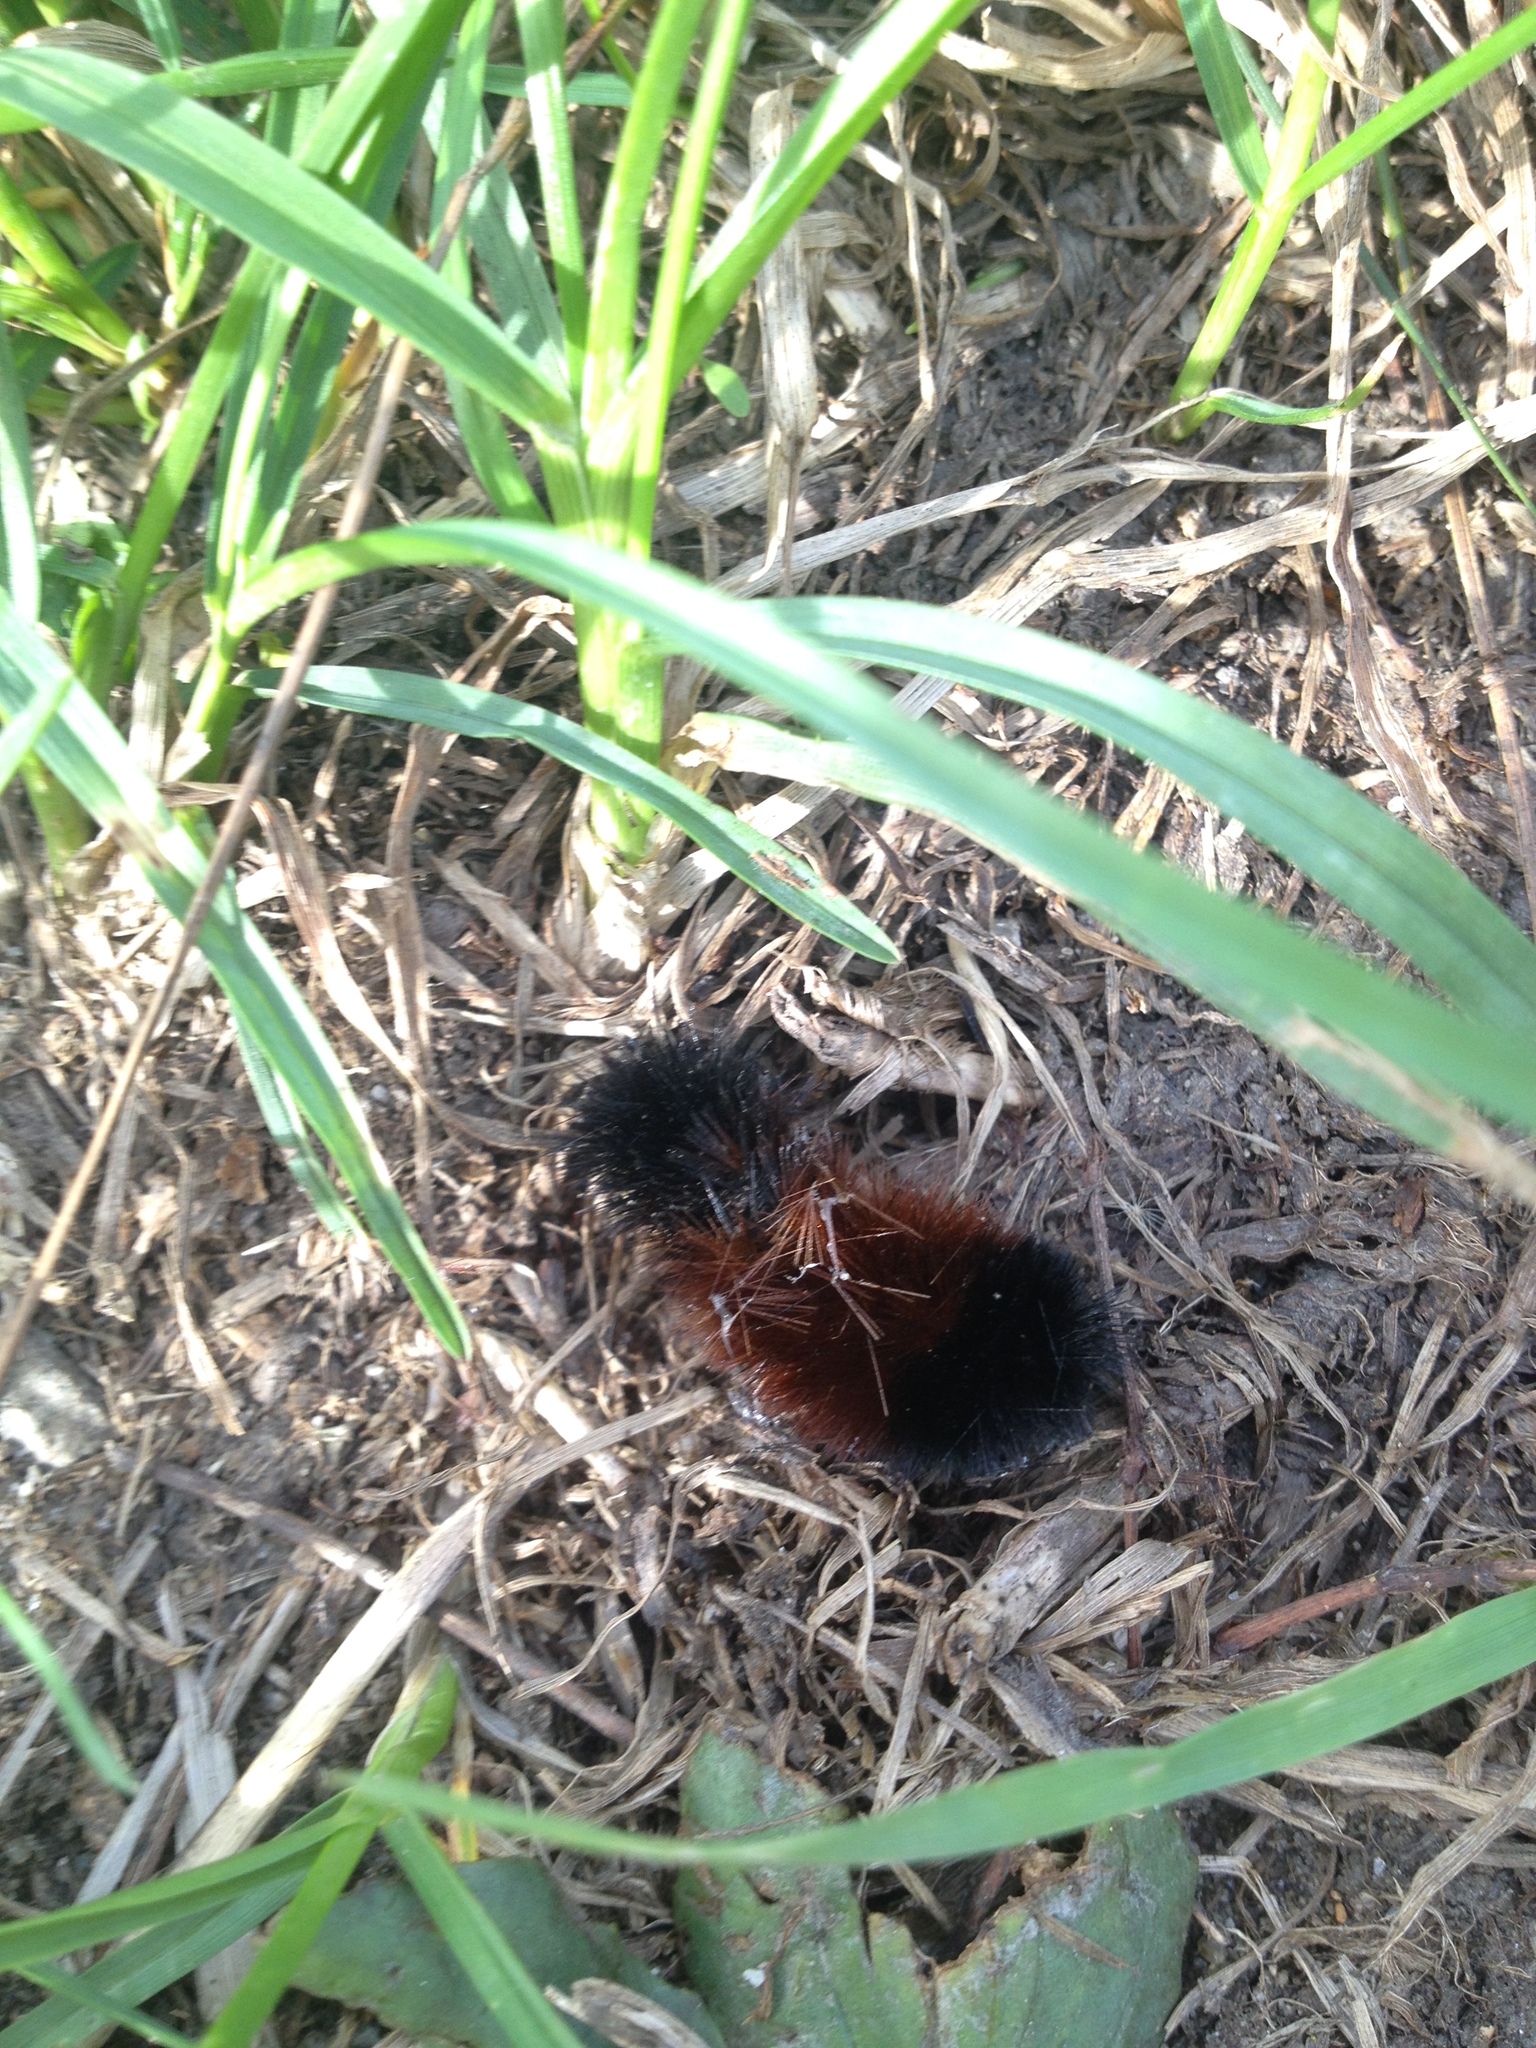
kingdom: Animalia
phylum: Arthropoda
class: Insecta
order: Lepidoptera
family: Erebidae
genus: Pyrrharctia
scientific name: Pyrrharctia isabella
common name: Isabella tiger moth
